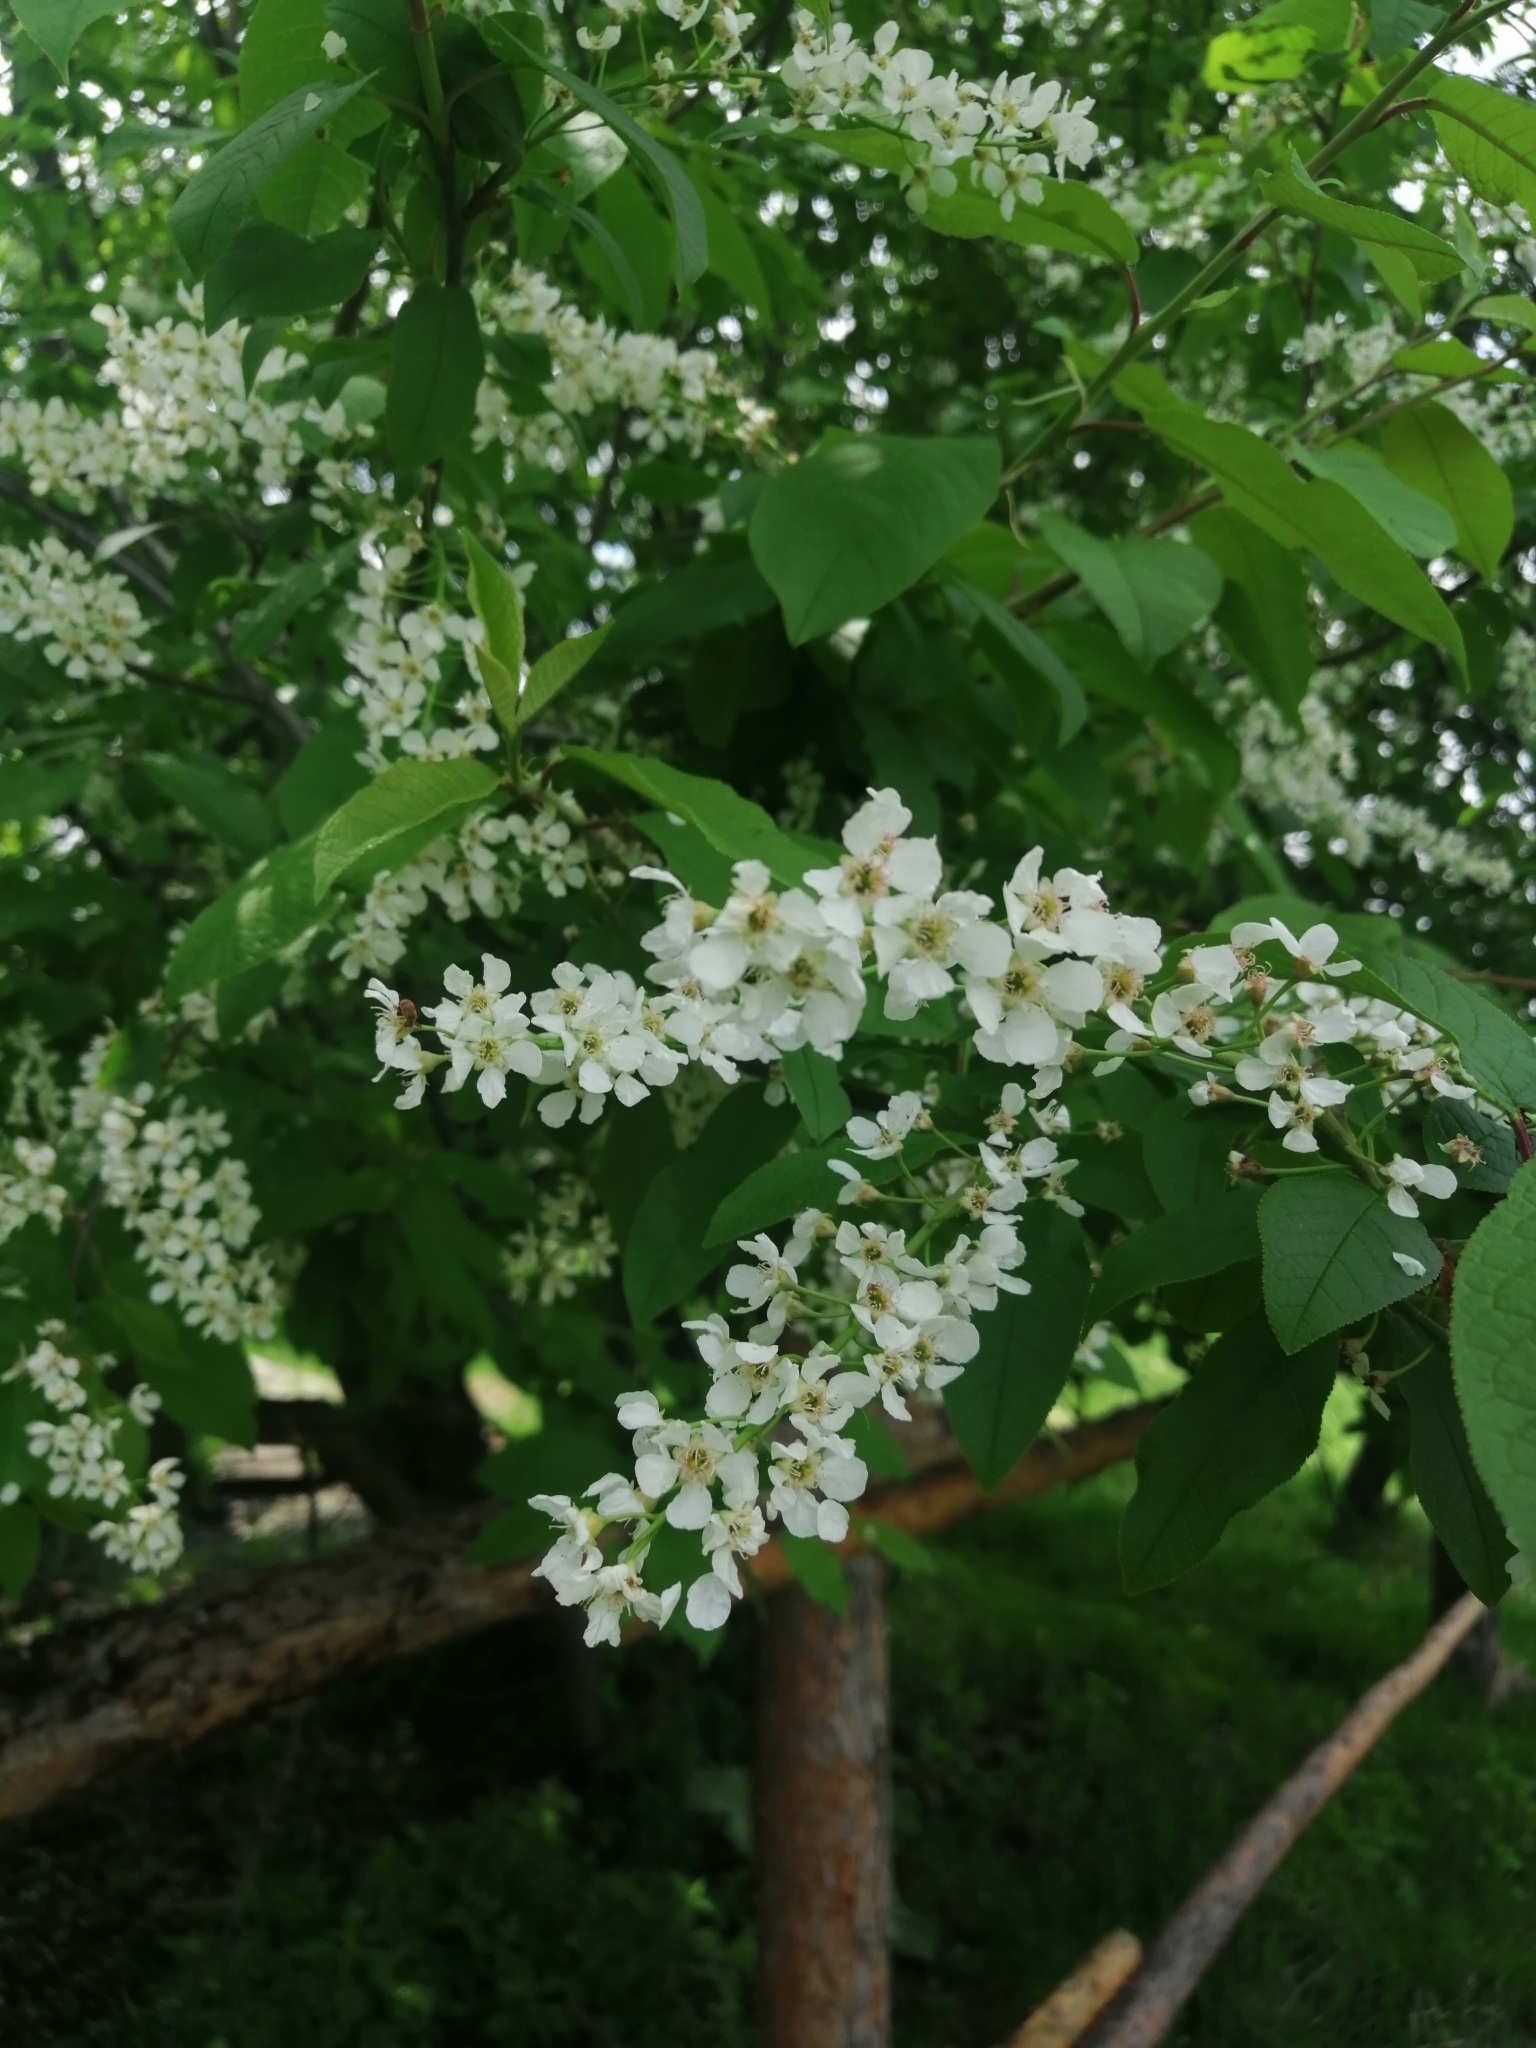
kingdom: Plantae
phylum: Tracheophyta
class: Magnoliopsida
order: Rosales
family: Rosaceae
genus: Prunus
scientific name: Prunus padus
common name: Bird cherry
